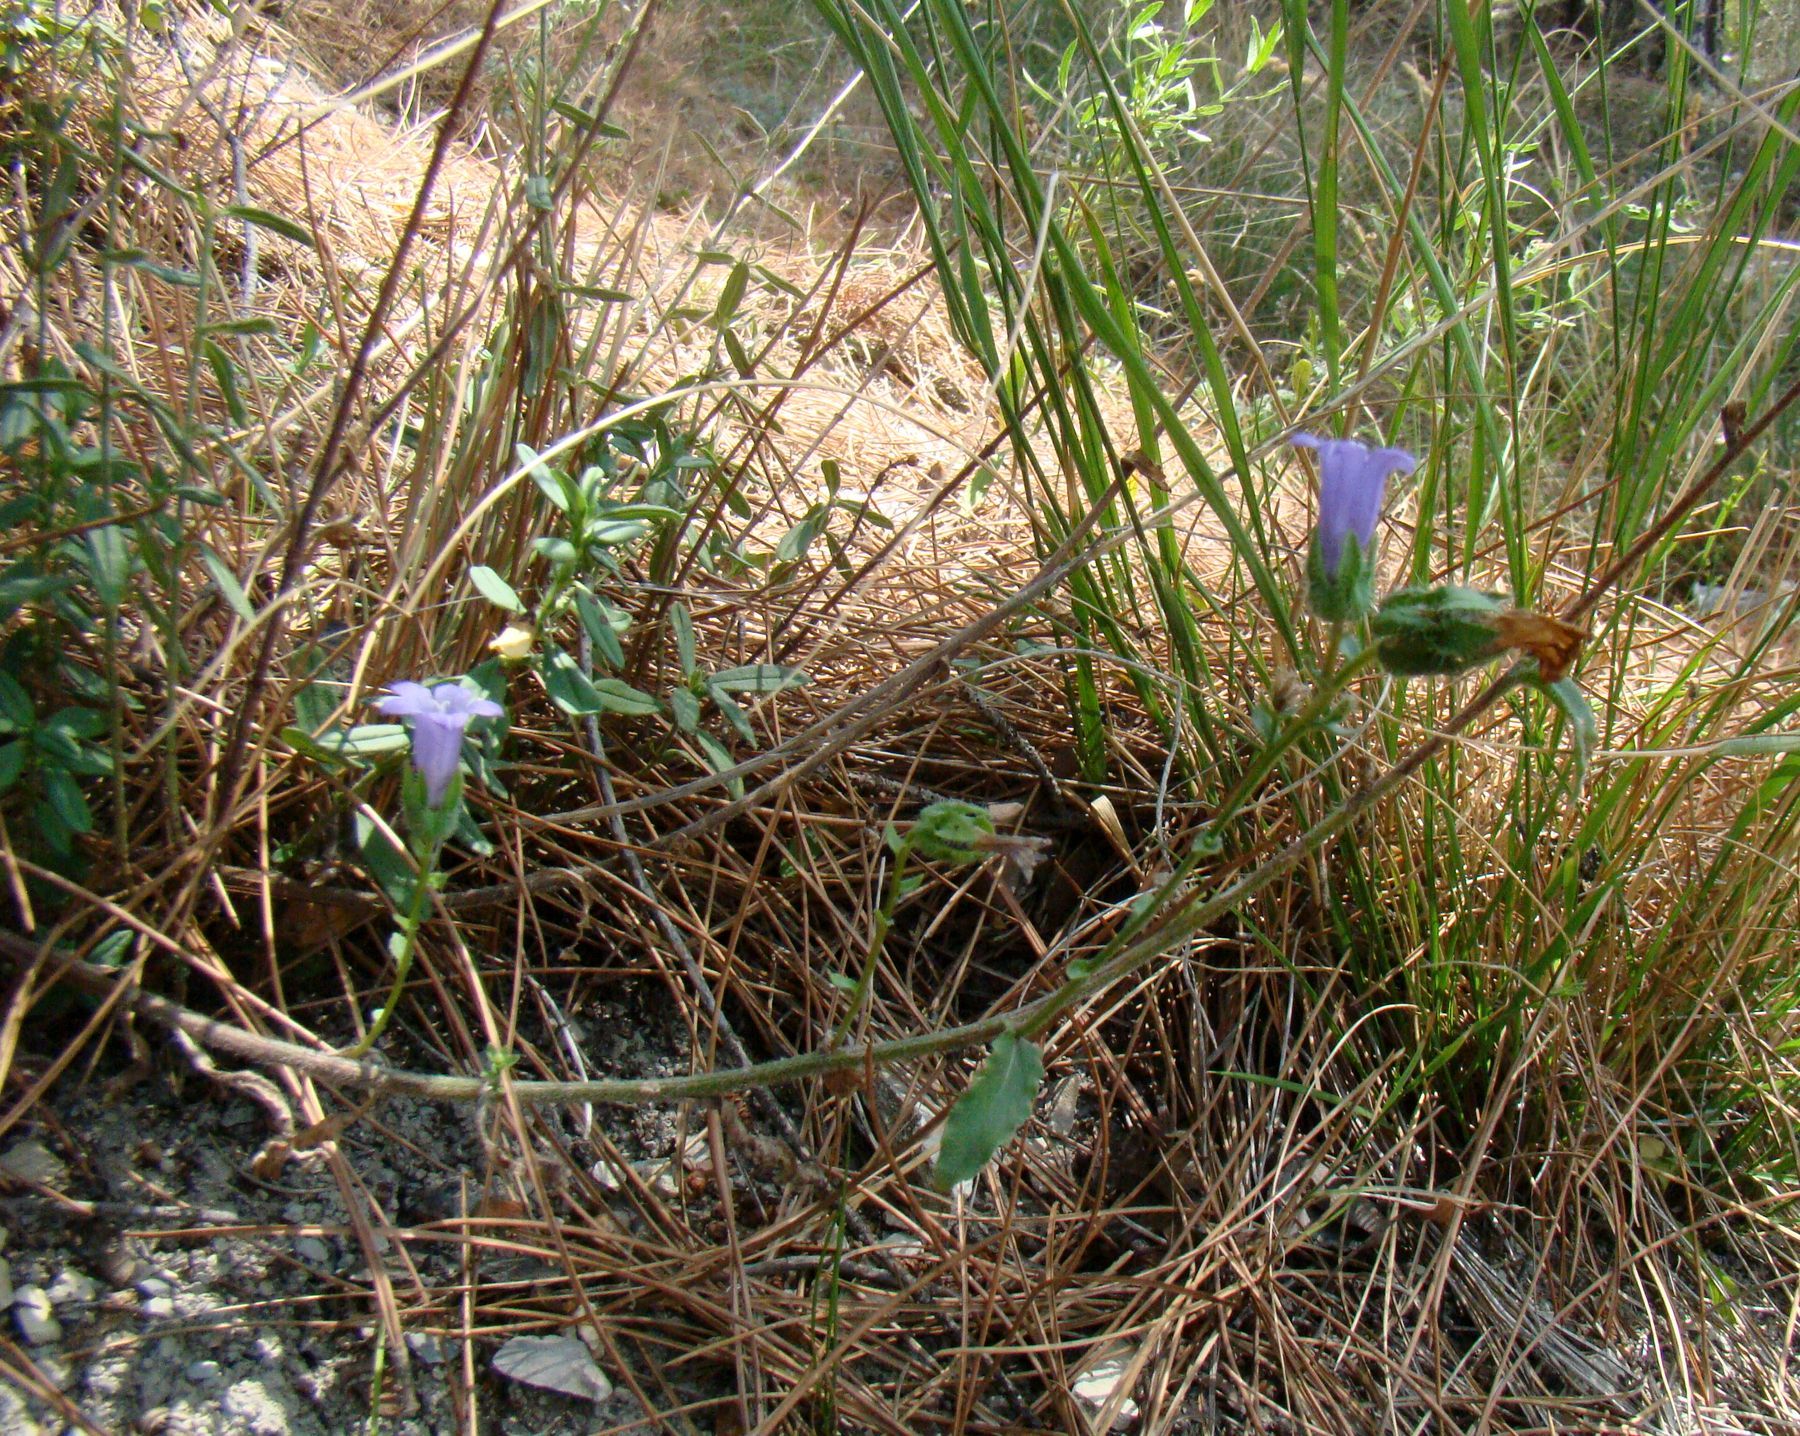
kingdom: Plantae
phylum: Tracheophyta
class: Magnoliopsida
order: Asterales
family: Campanulaceae
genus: Campanula
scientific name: Campanula komarovii
